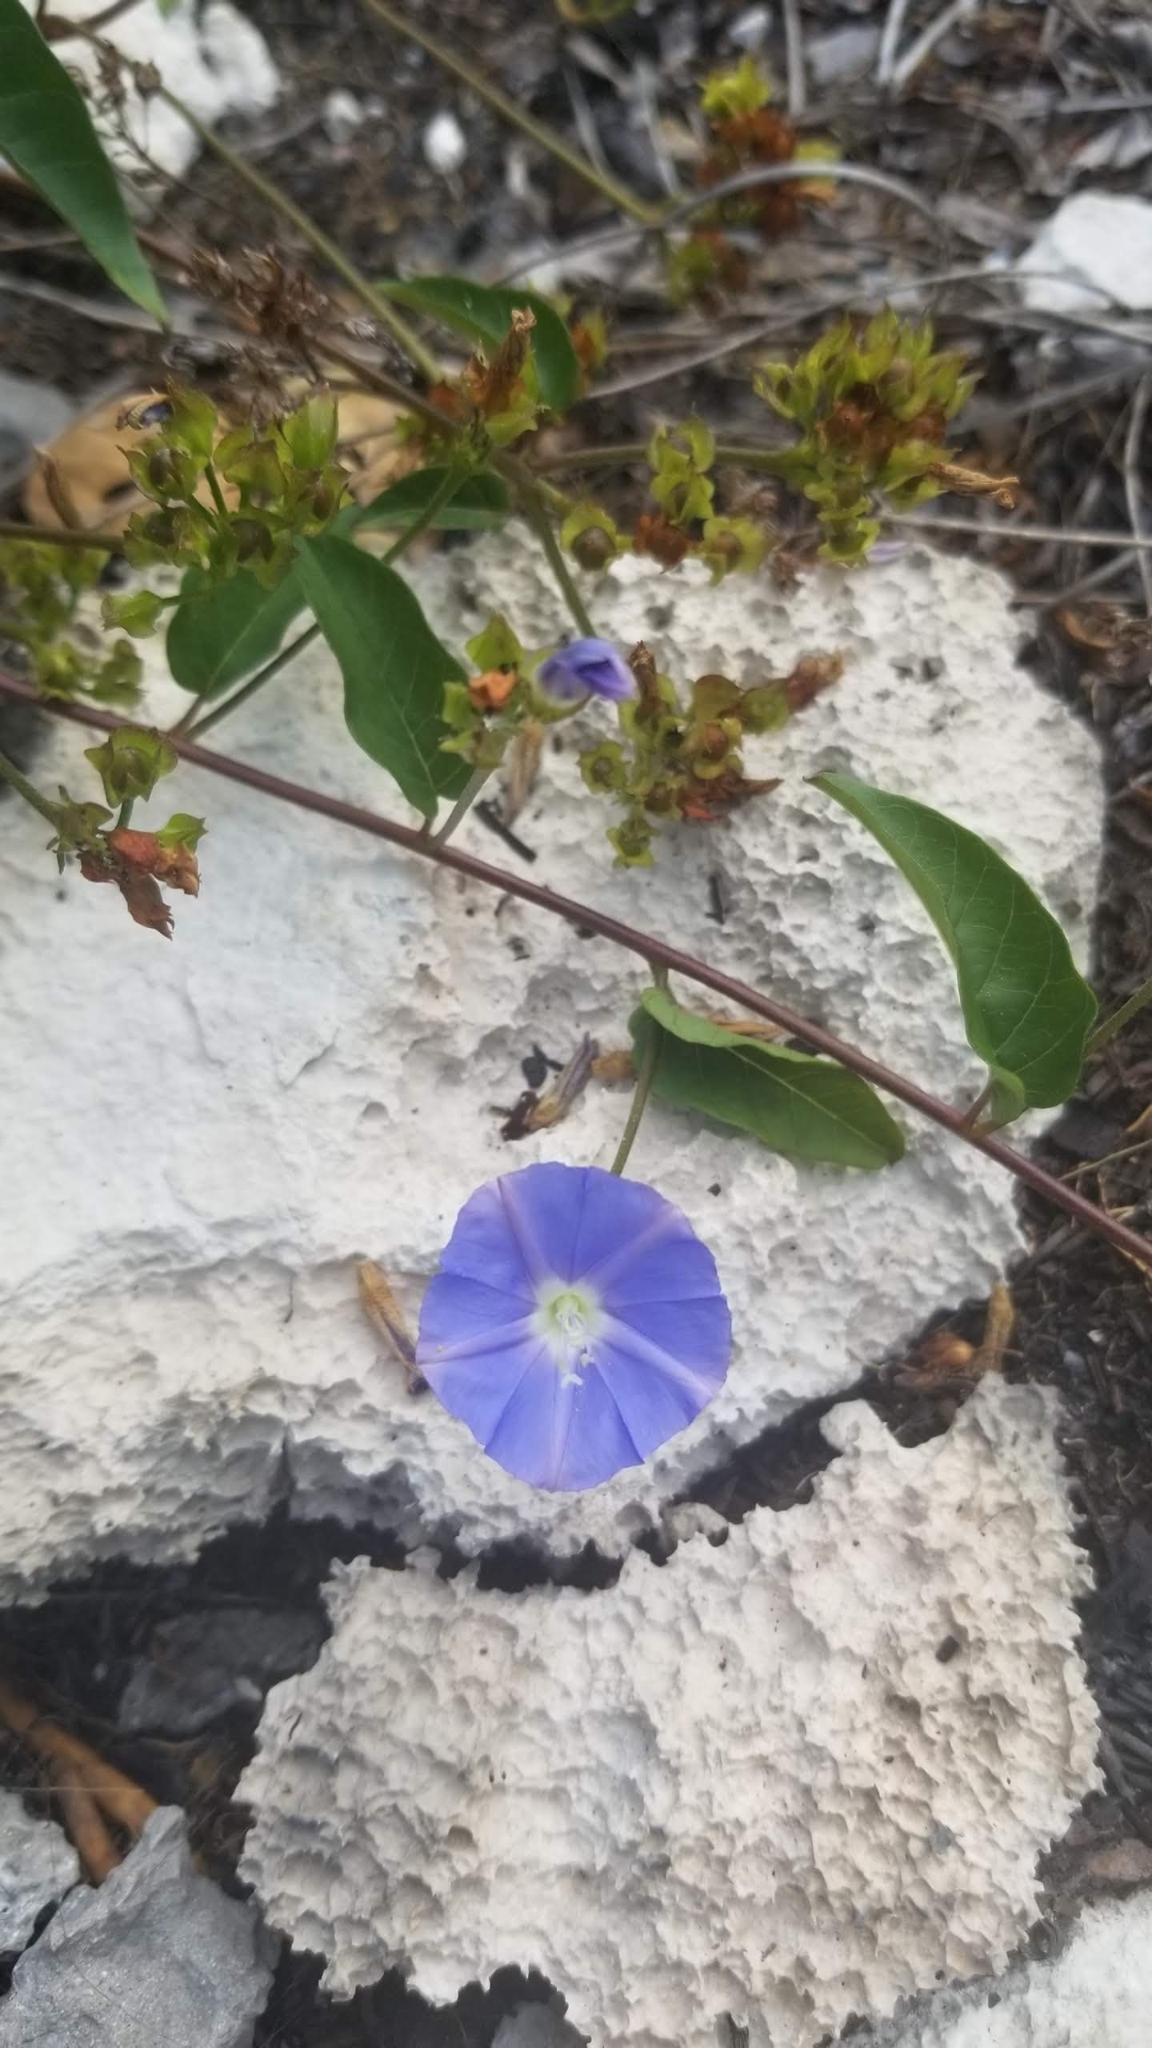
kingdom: Plantae
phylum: Tracheophyta
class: Magnoliopsida
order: Solanales
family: Convolvulaceae
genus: Jacquemontia
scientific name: Jacquemontia pentanthos
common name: Skyblue clustervine
